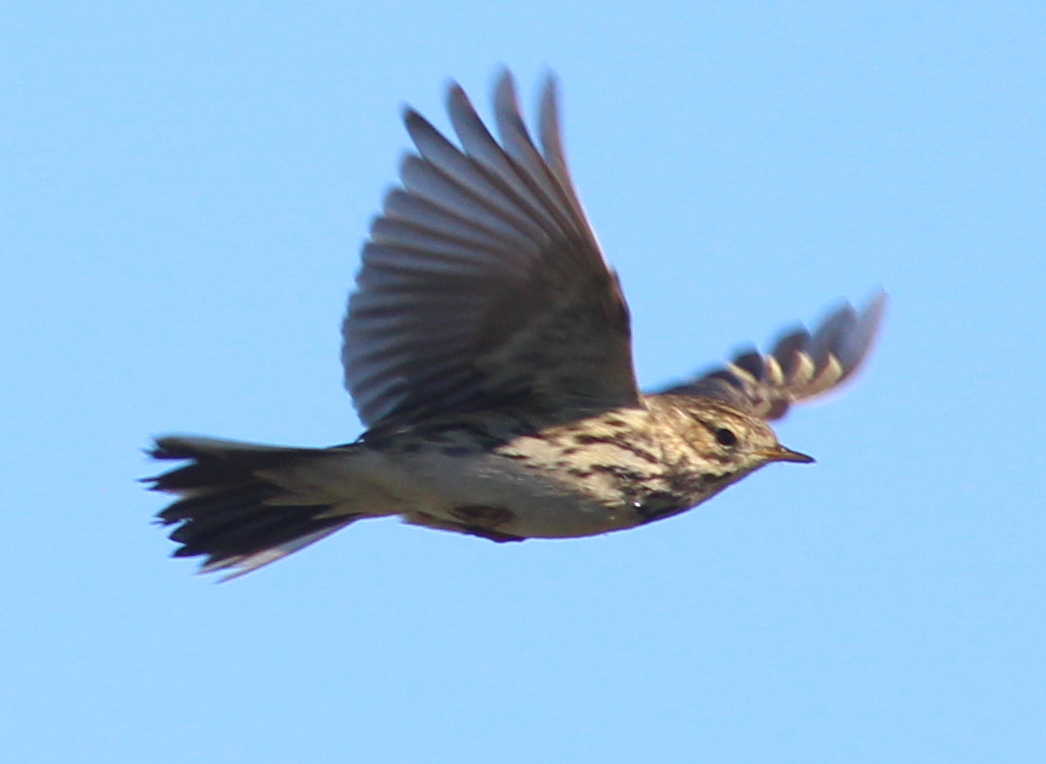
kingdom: Animalia
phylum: Chordata
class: Aves
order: Passeriformes
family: Motacillidae
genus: Anthus
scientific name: Anthus pratensis
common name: Meadow pipit
